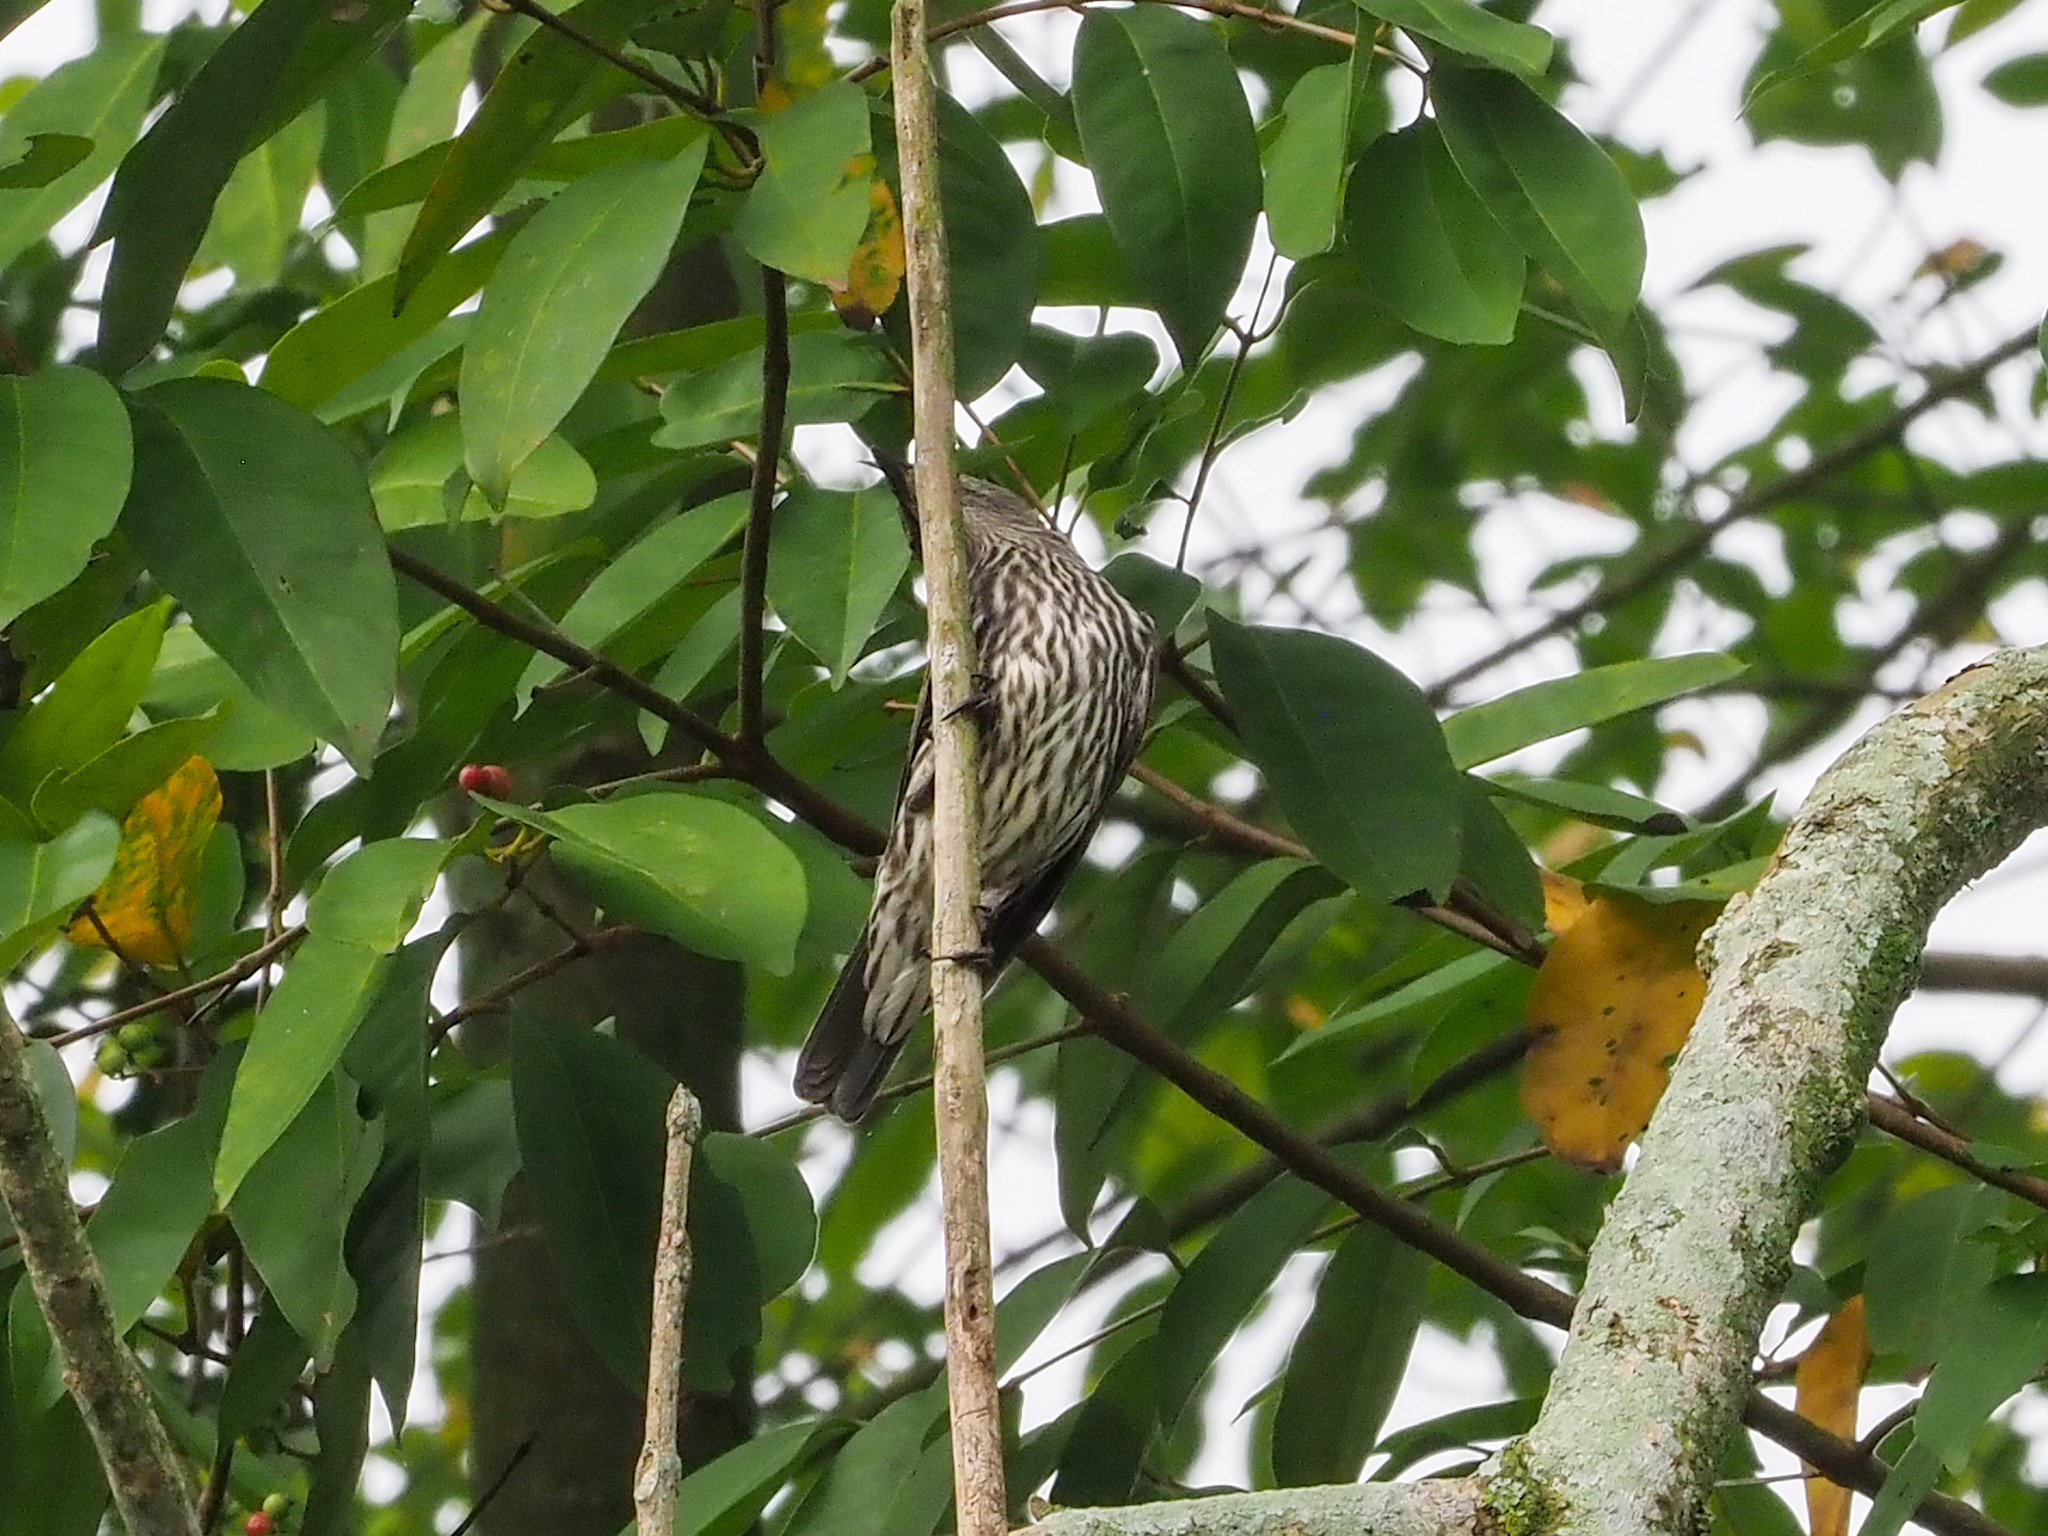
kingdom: Animalia
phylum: Chordata
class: Aves
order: Passeriformes
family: Sturnidae
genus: Aplonis
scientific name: Aplonis panayensis
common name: Asian glossy starling
